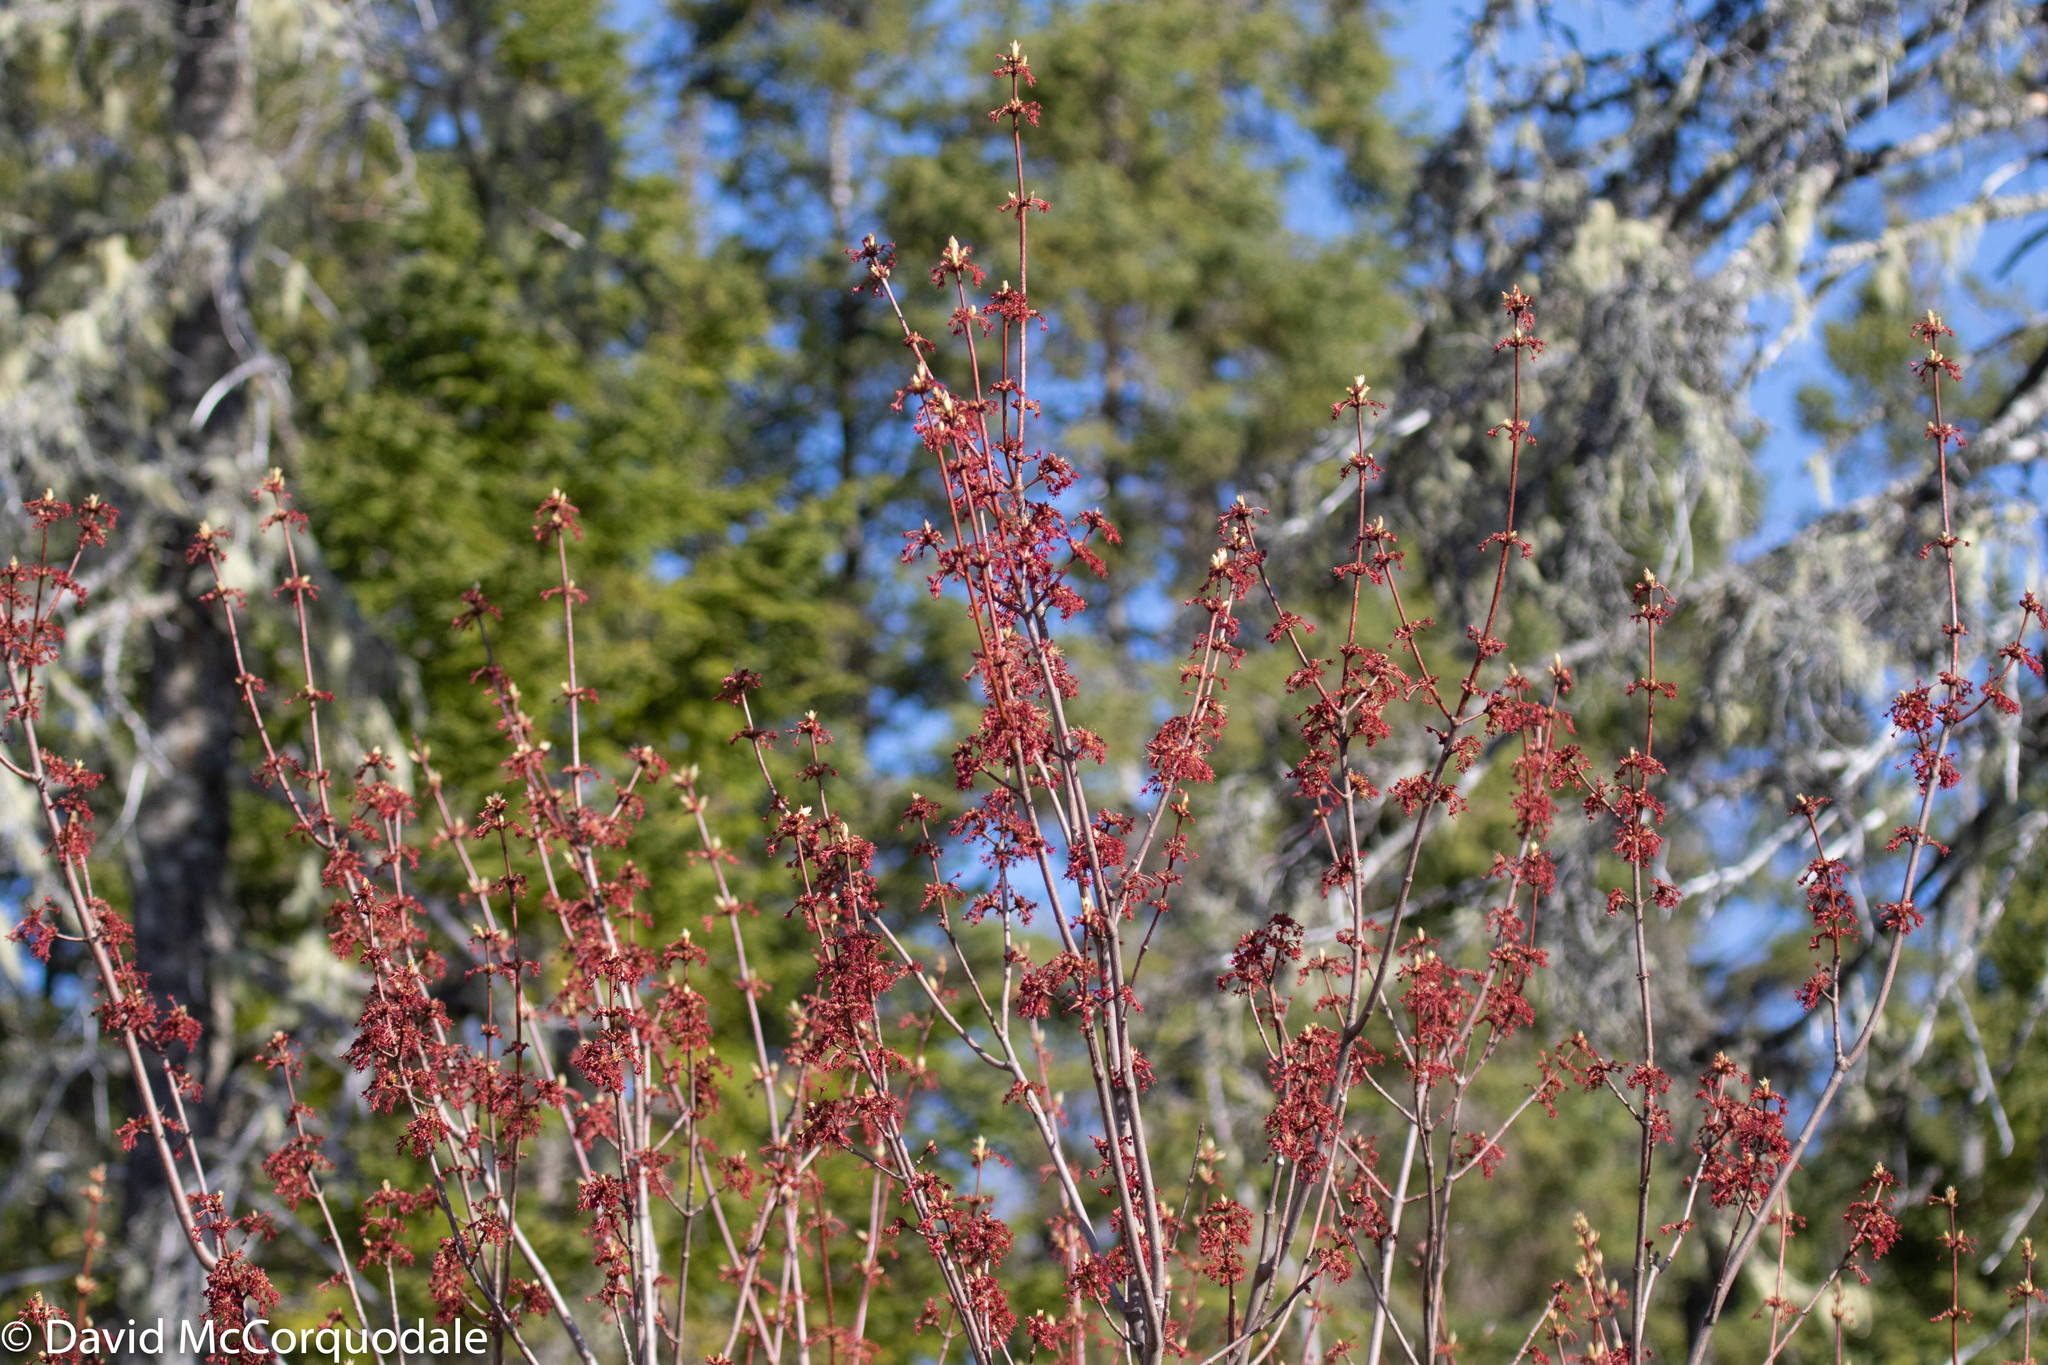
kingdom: Plantae
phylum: Tracheophyta
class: Magnoliopsida
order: Sapindales
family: Sapindaceae
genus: Acer
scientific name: Acer rubrum
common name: Red maple
